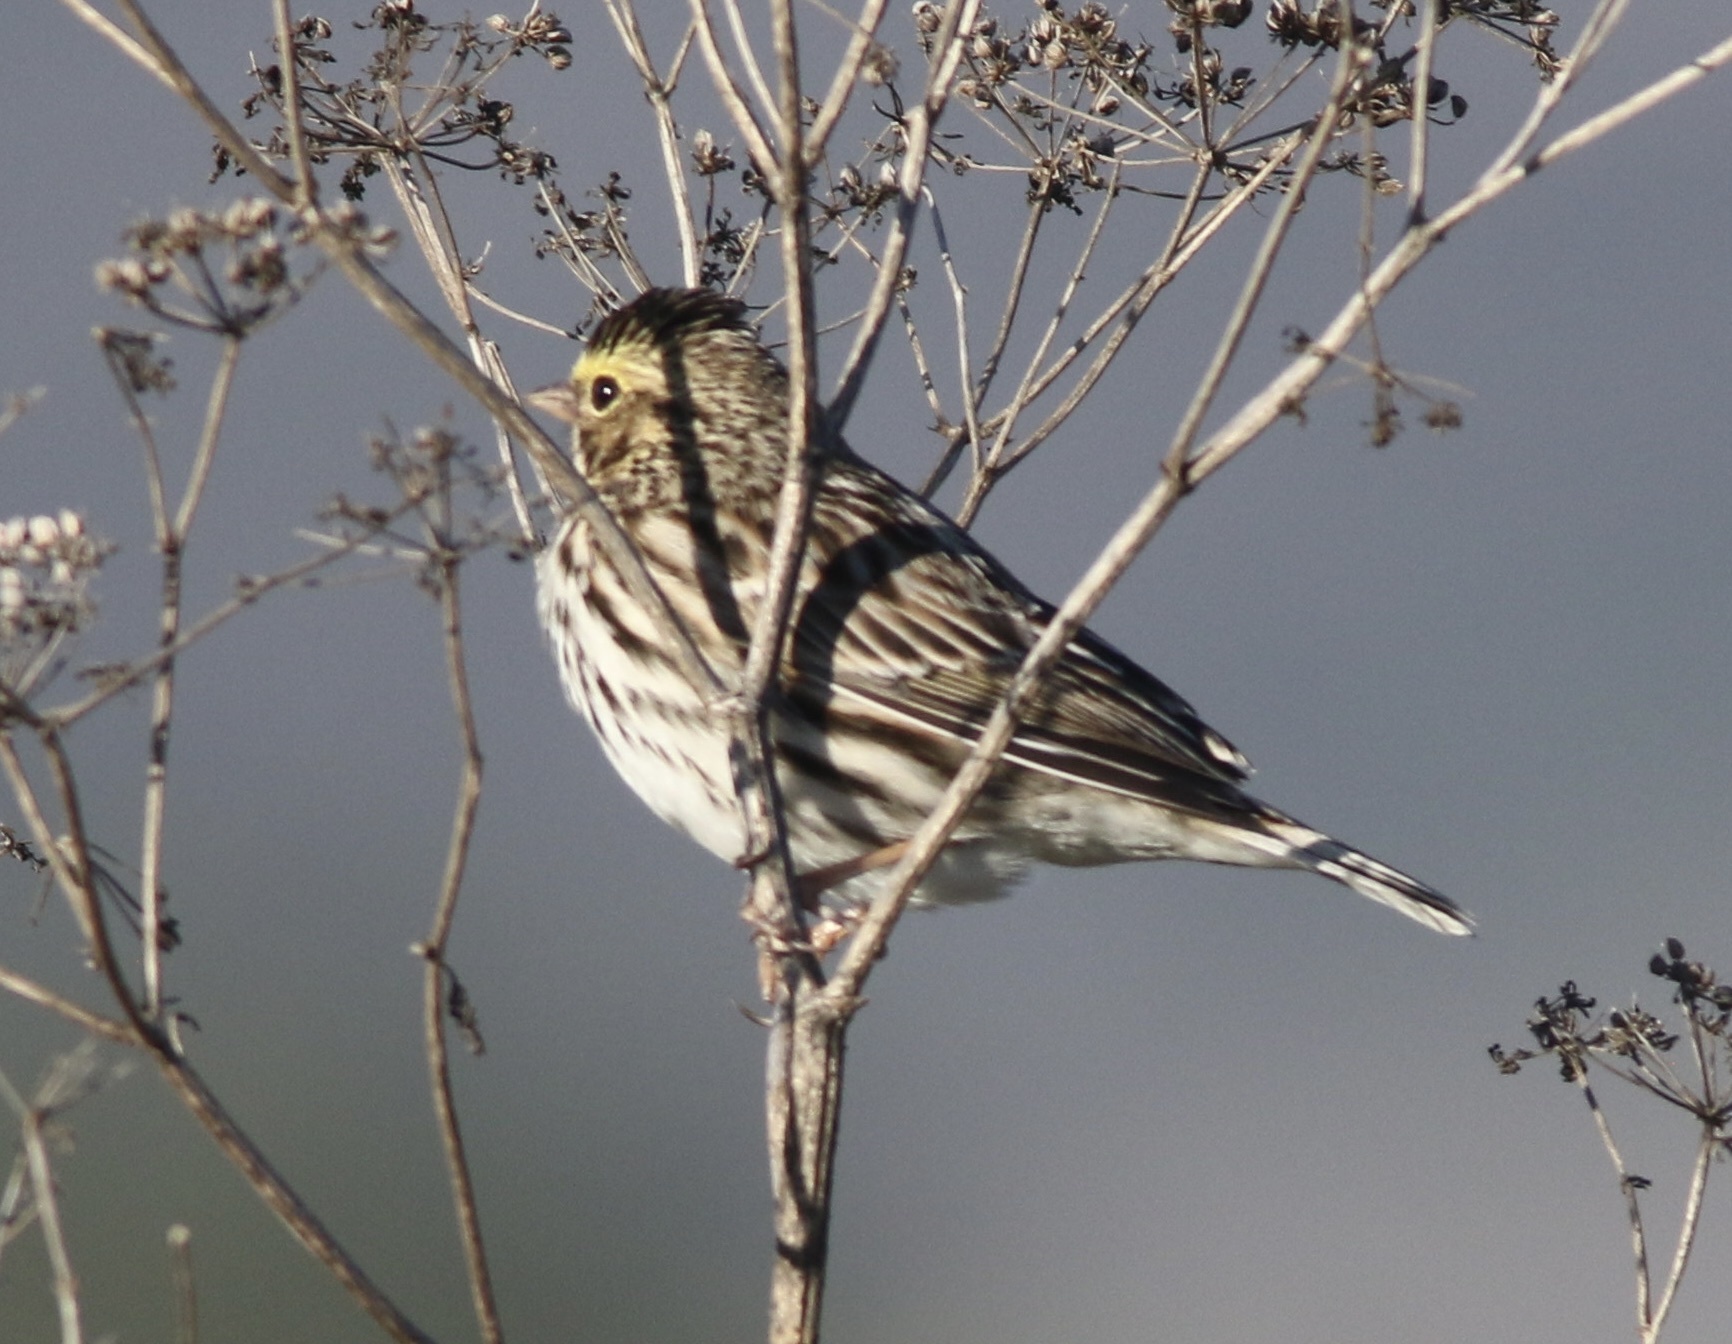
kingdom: Animalia
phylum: Chordata
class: Aves
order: Passeriformes
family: Passerellidae
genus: Passerculus
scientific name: Passerculus sandwichensis
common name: Savannah sparrow
